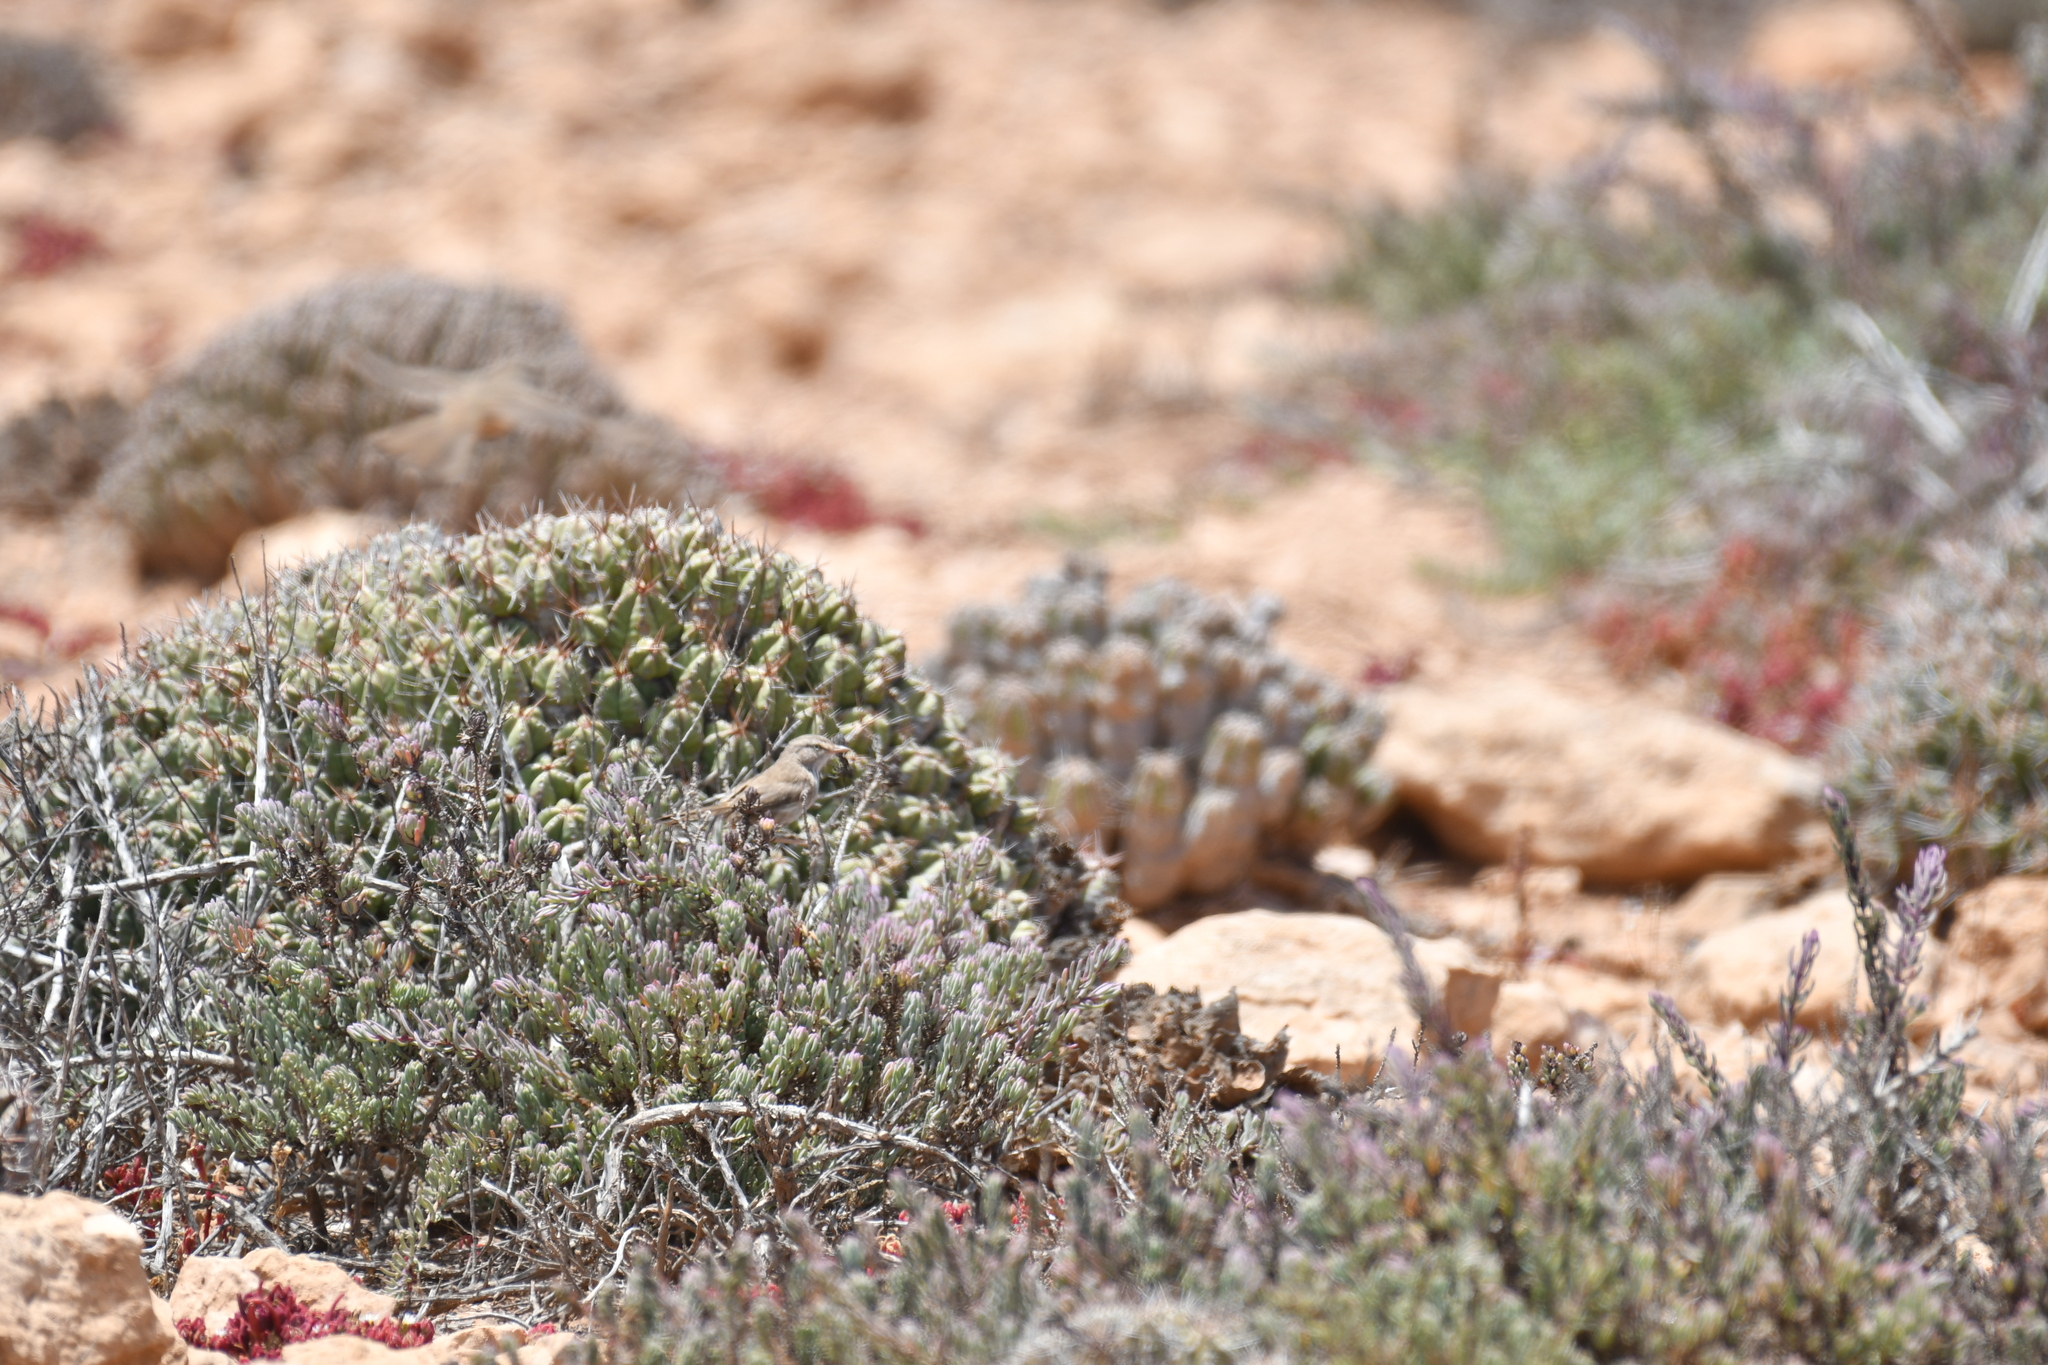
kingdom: Animalia
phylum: Chordata
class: Aves
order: Passeriformes
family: Scotocercidae
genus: Scotocerca
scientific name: Scotocerca inquieta
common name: Scrub warbler
